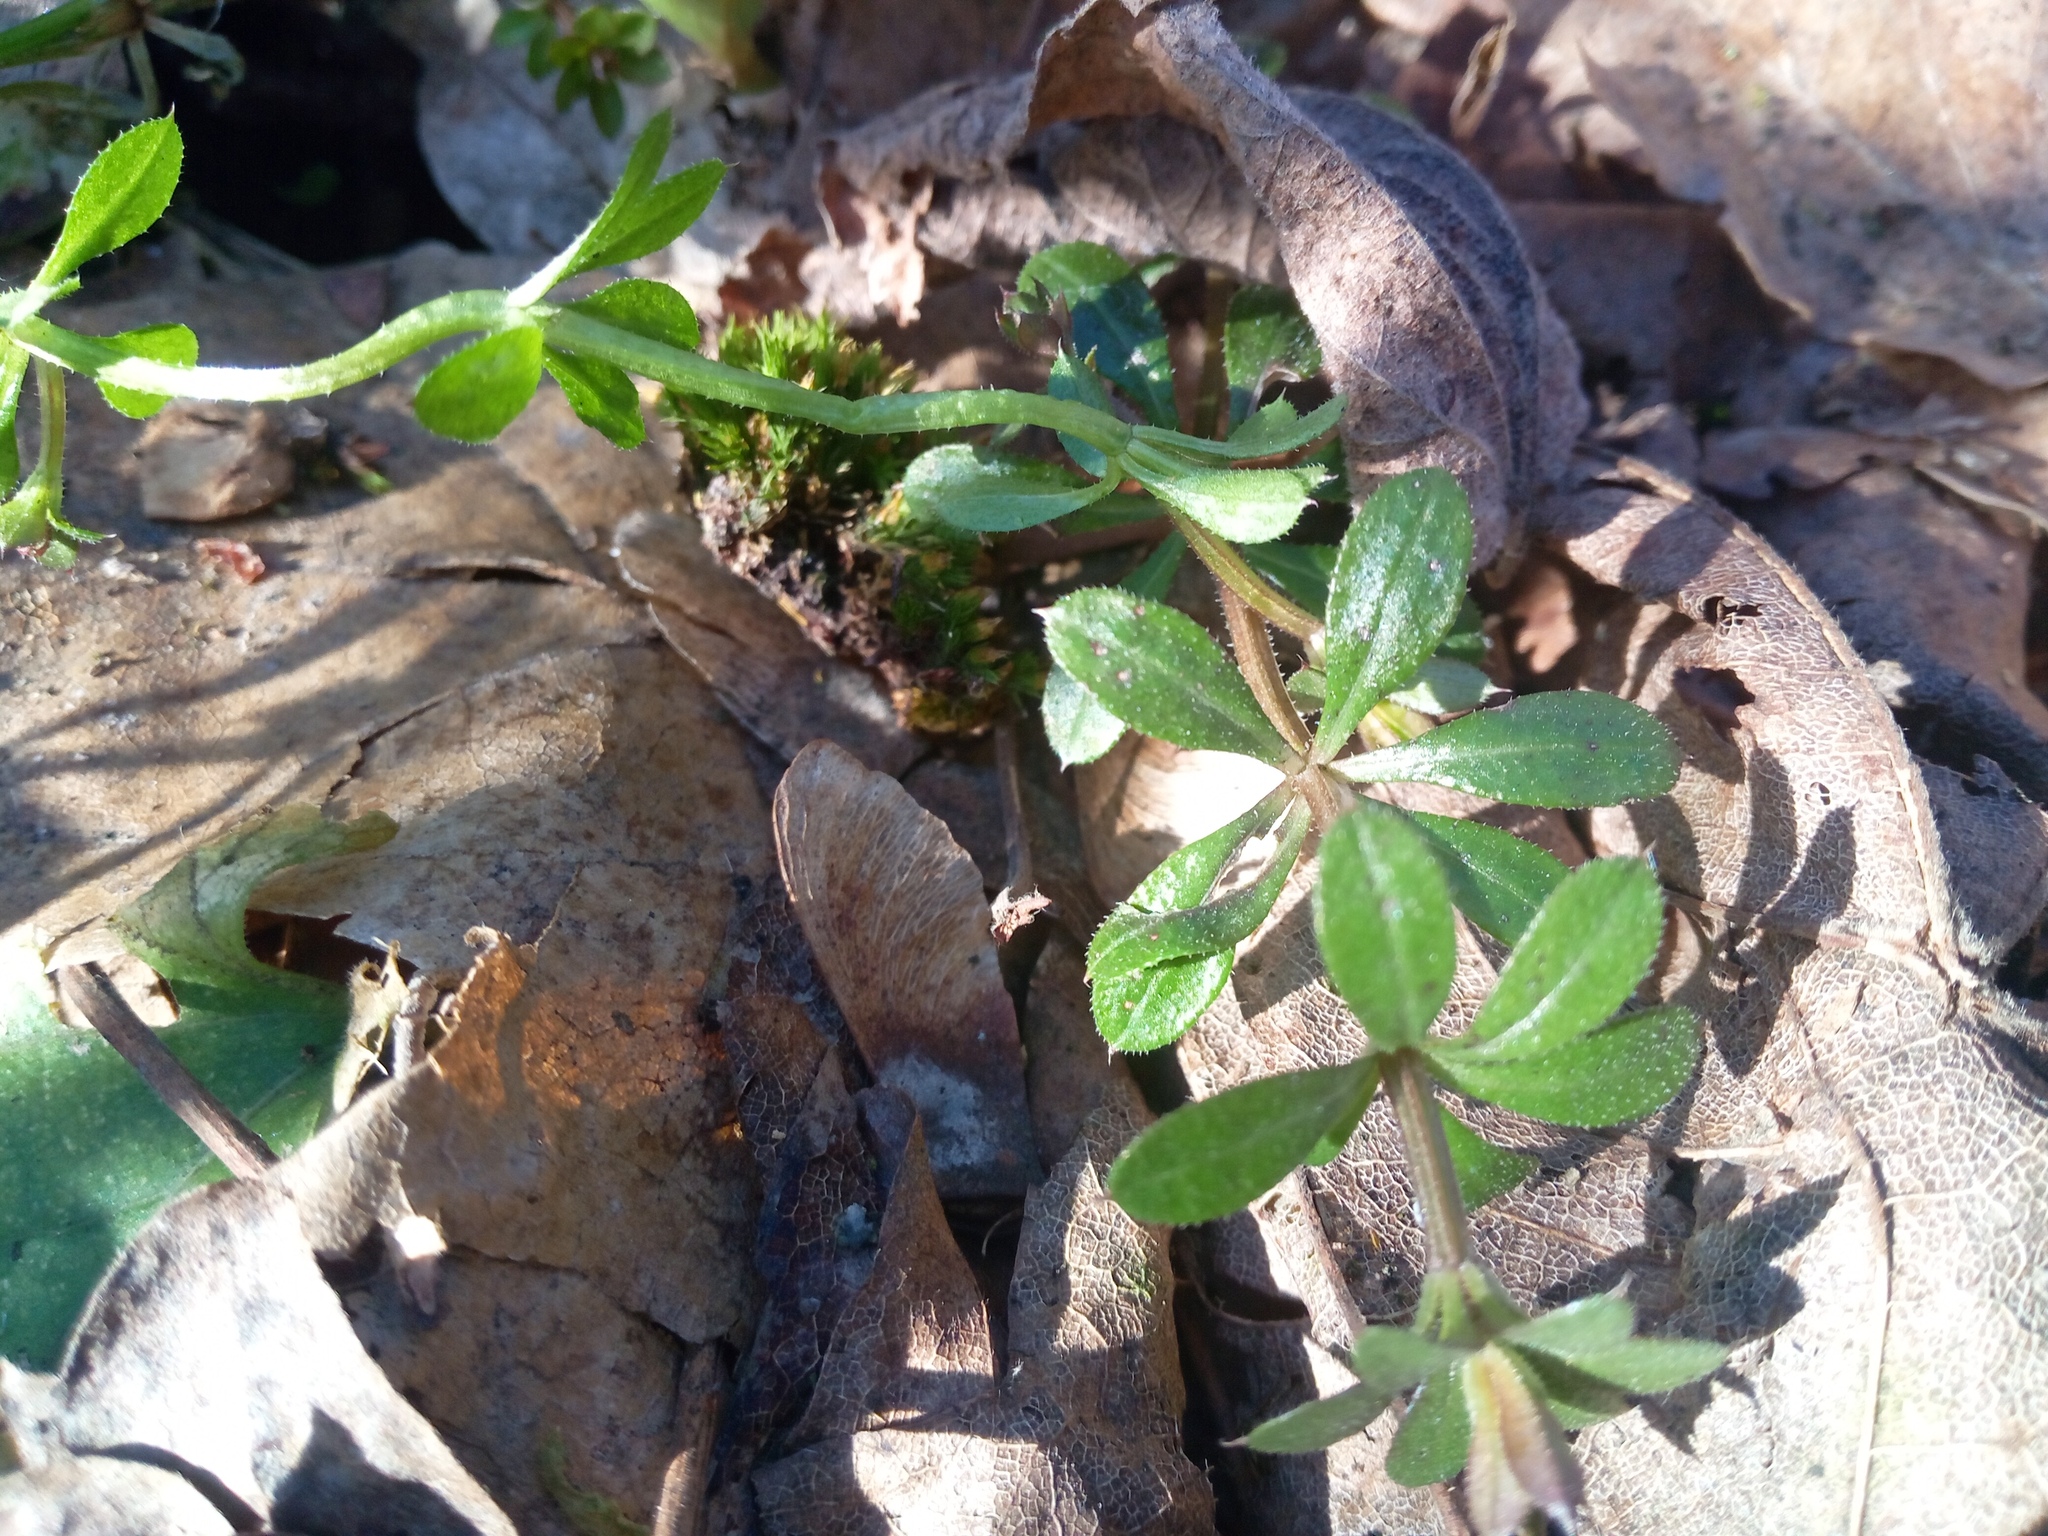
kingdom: Plantae
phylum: Tracheophyta
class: Magnoliopsida
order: Gentianales
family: Rubiaceae
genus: Galium
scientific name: Galium aparine
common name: Cleavers
